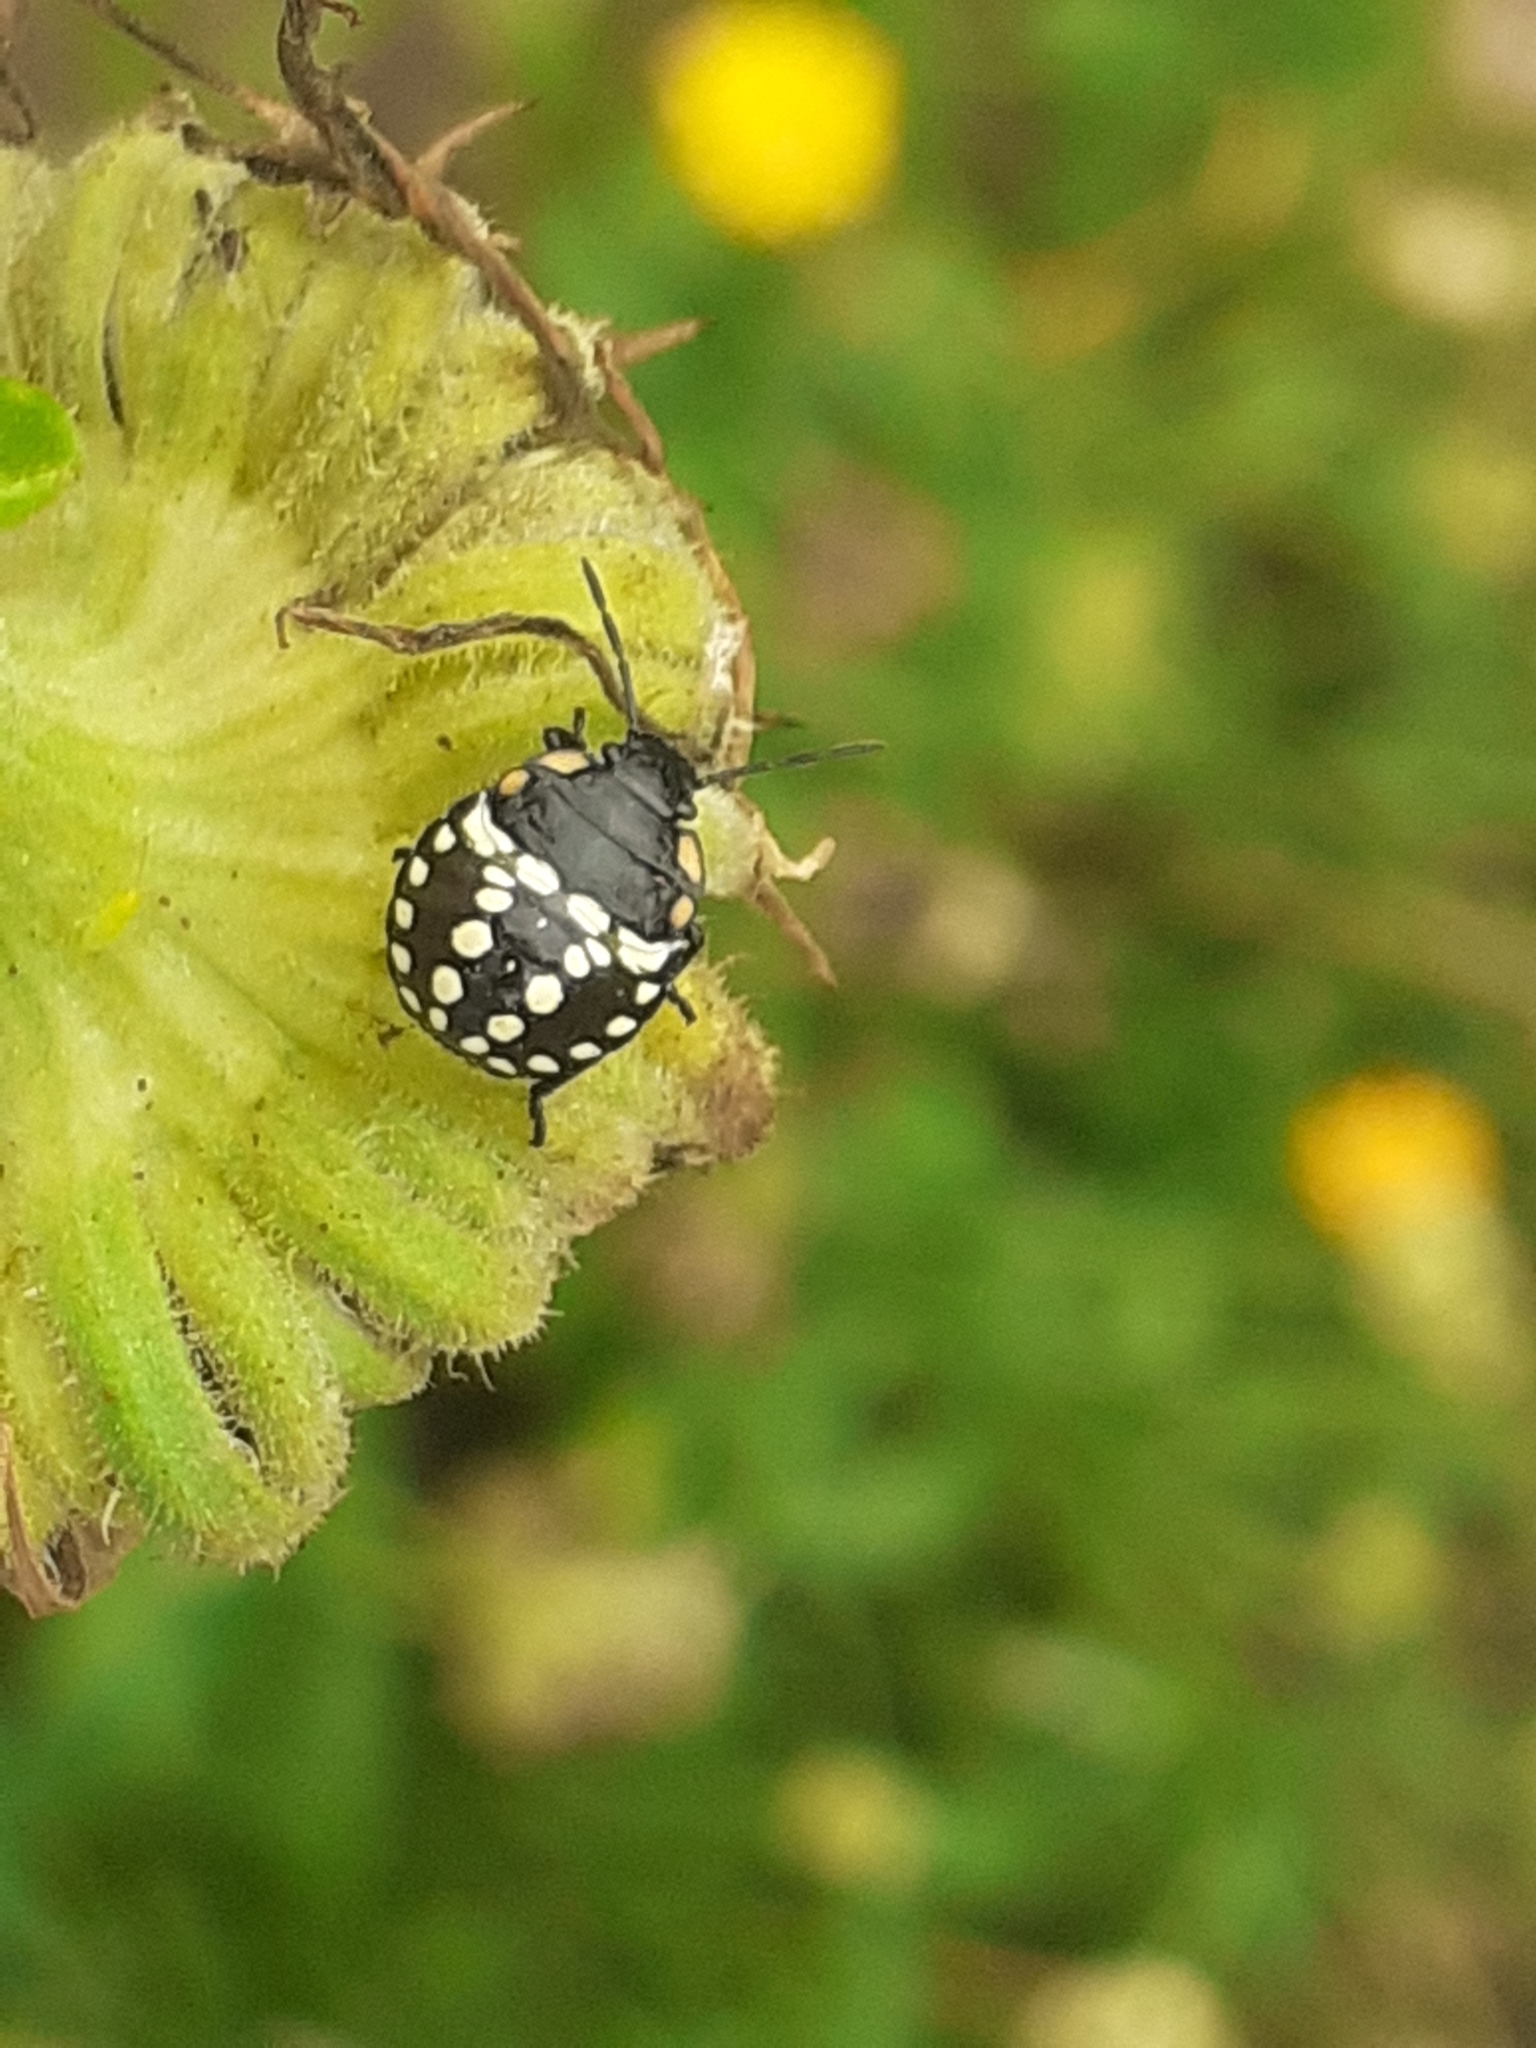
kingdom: Animalia
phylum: Arthropoda
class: Insecta
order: Hemiptera
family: Pentatomidae
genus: Nezara
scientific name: Nezara viridula
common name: Southern green stink bug
